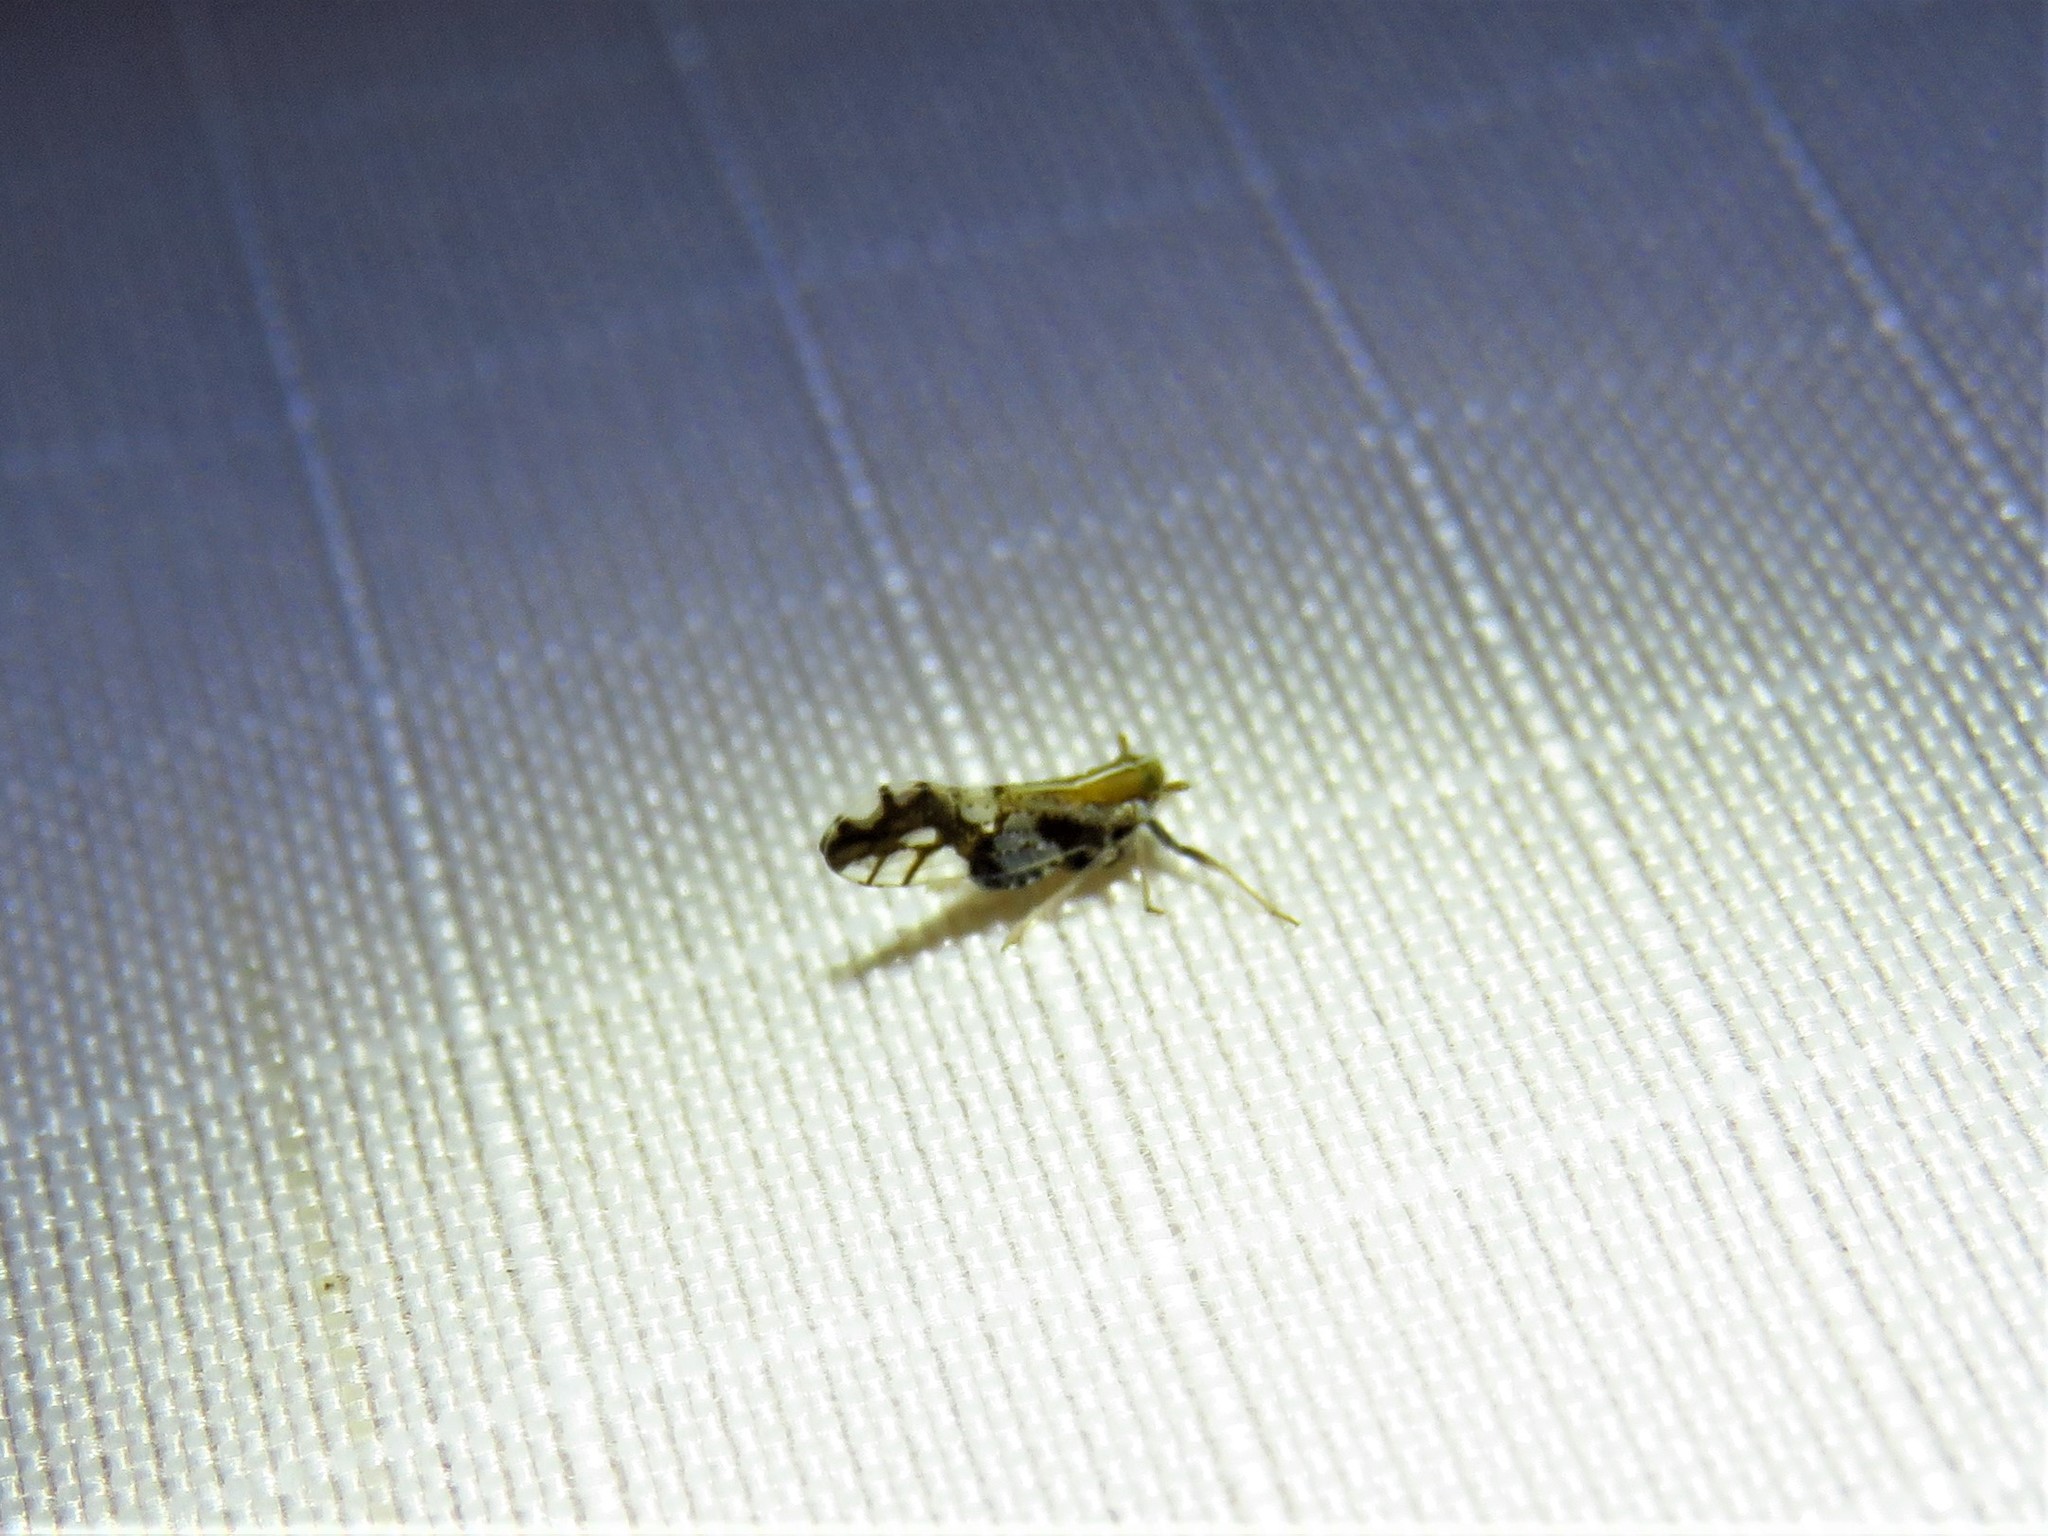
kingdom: Animalia
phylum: Arthropoda
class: Insecta
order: Hemiptera
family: Delphacidae
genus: Liburniella
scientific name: Liburniella ornata
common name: Ornate planthopper
